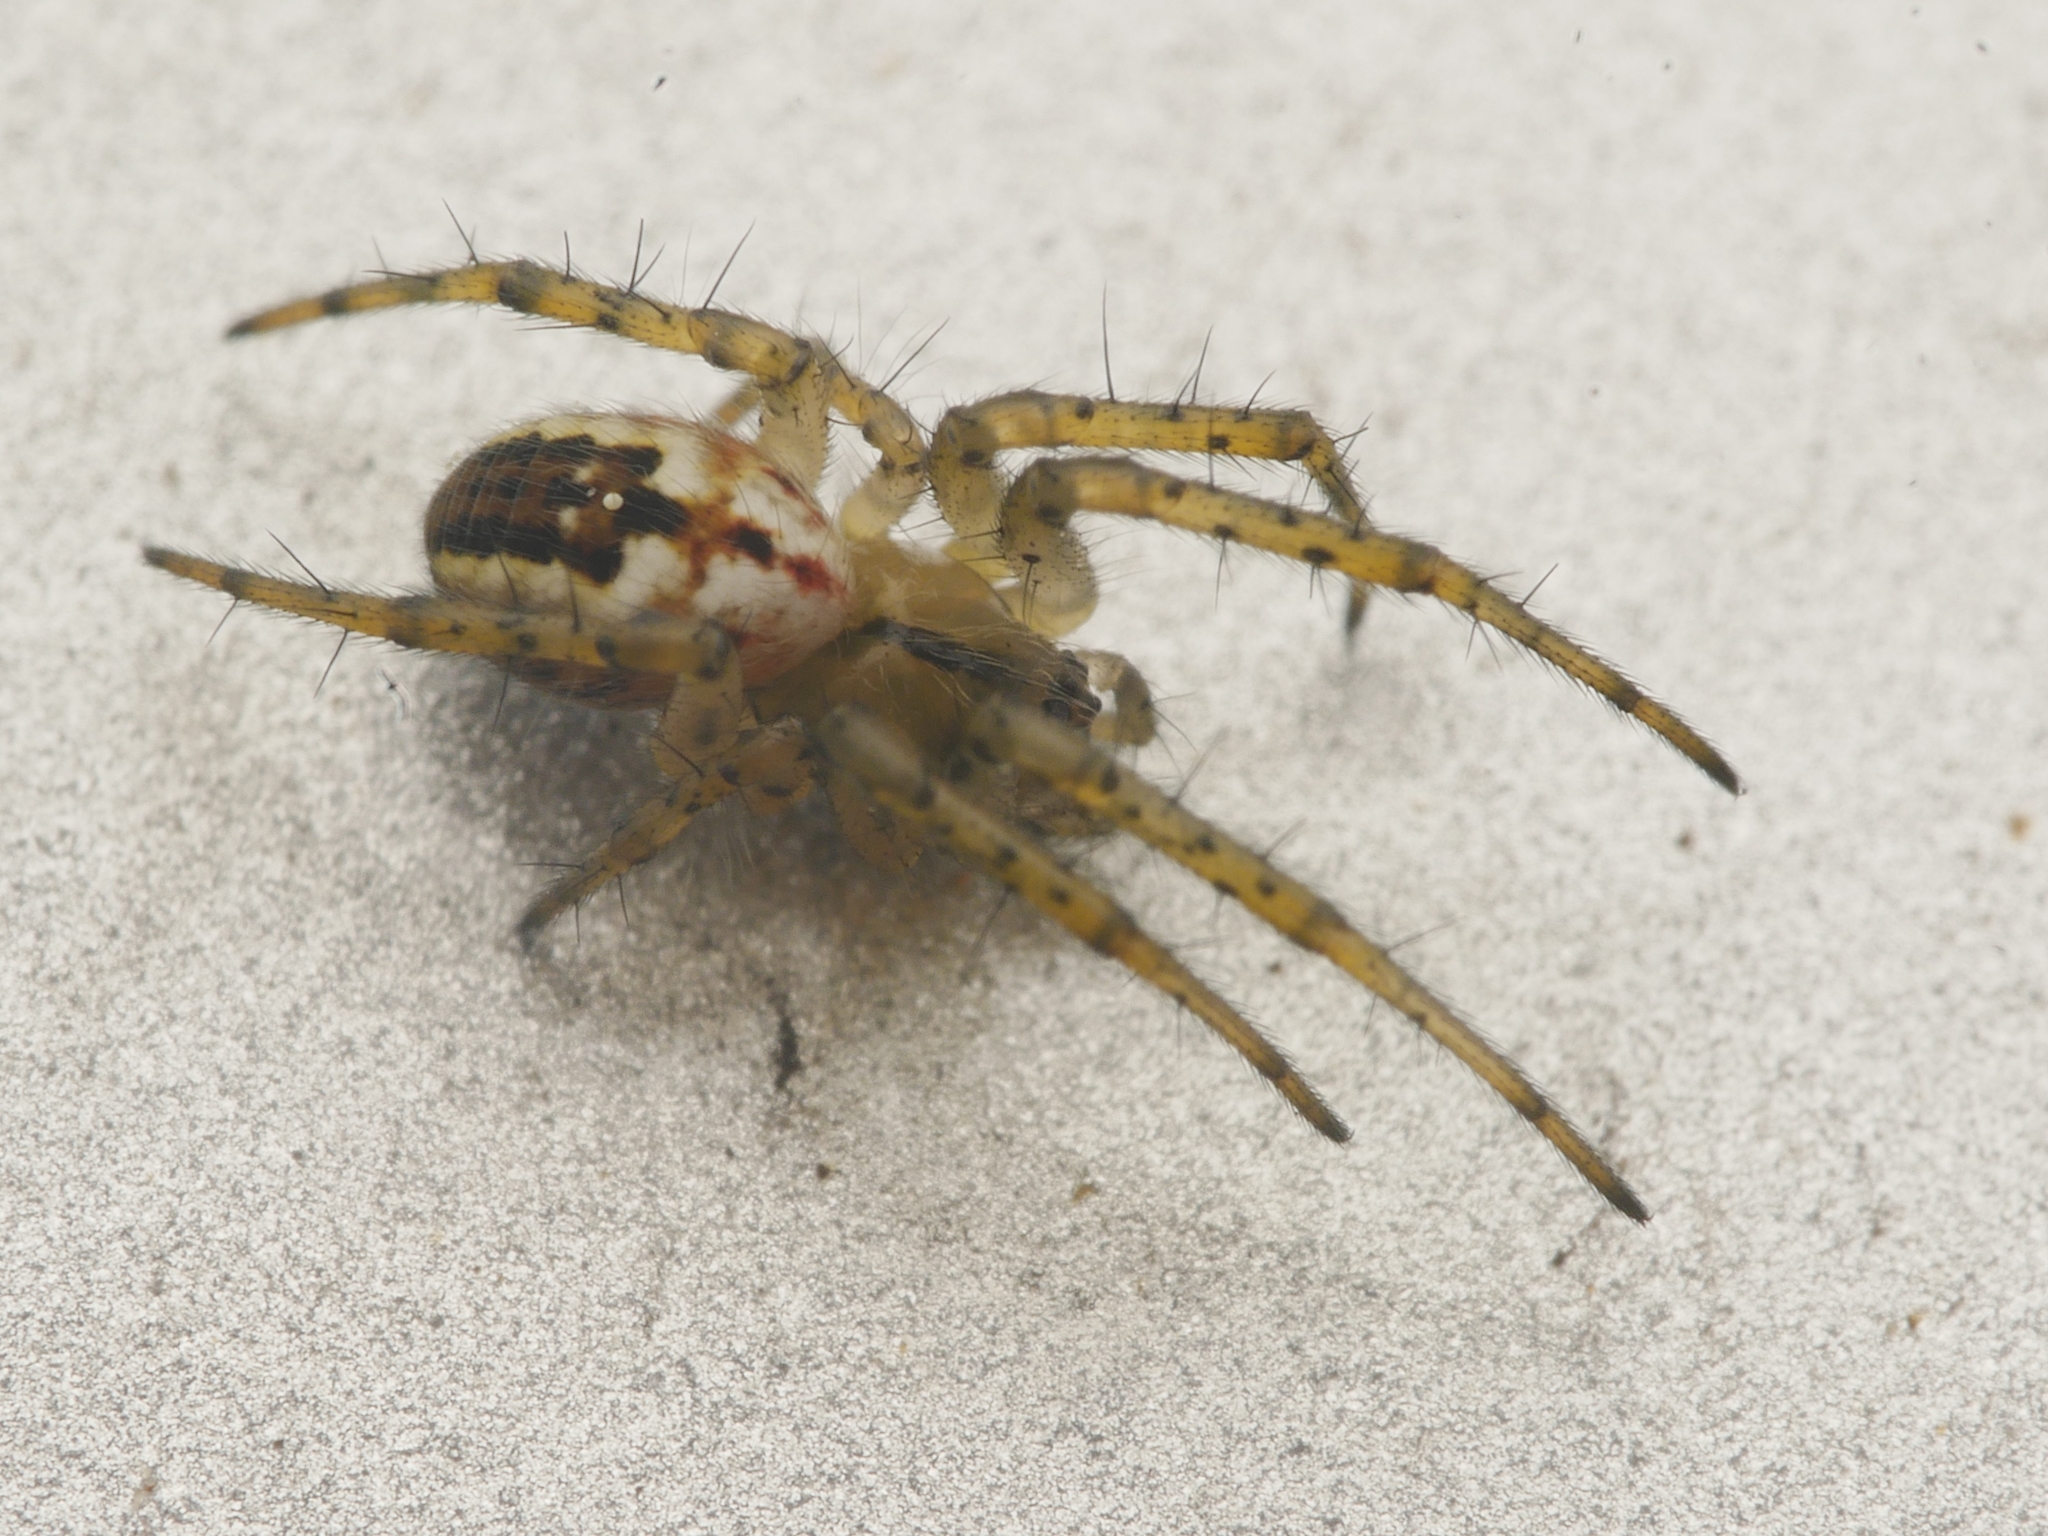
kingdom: Animalia
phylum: Arthropoda
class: Arachnida
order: Araneae
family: Araneidae
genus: Mangora
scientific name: Mangora acalypha
